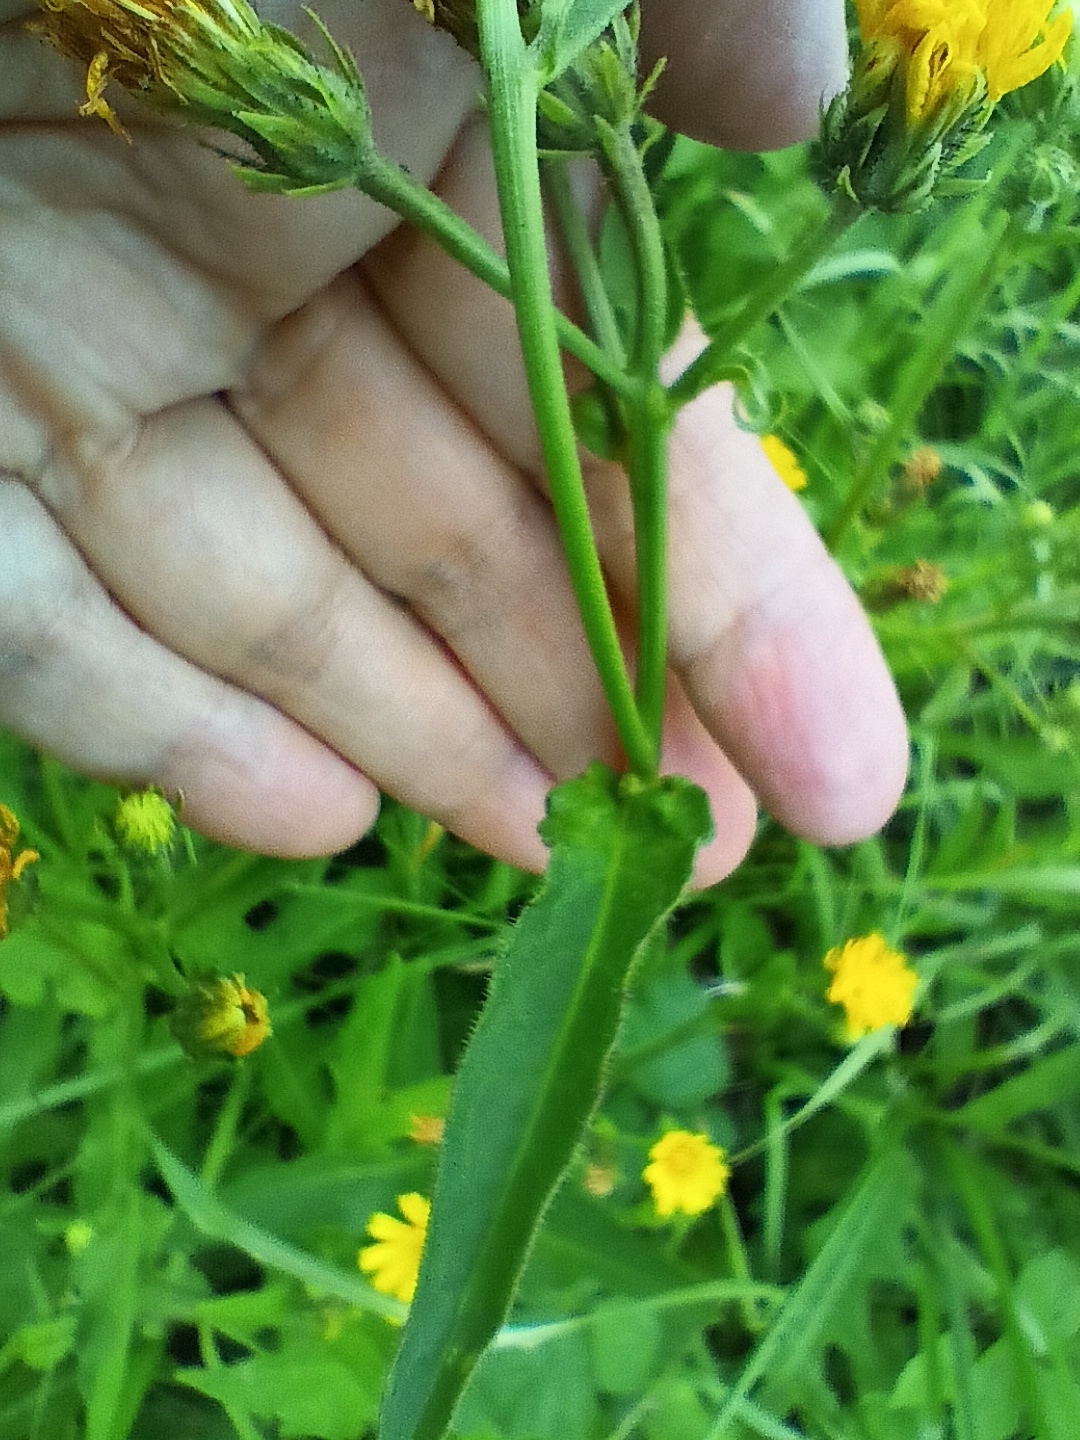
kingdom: Plantae
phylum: Tracheophyta
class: Magnoliopsida
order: Asterales
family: Asteraceae
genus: Picris
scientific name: Picris hieracioides
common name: Hawkweed oxtongue
